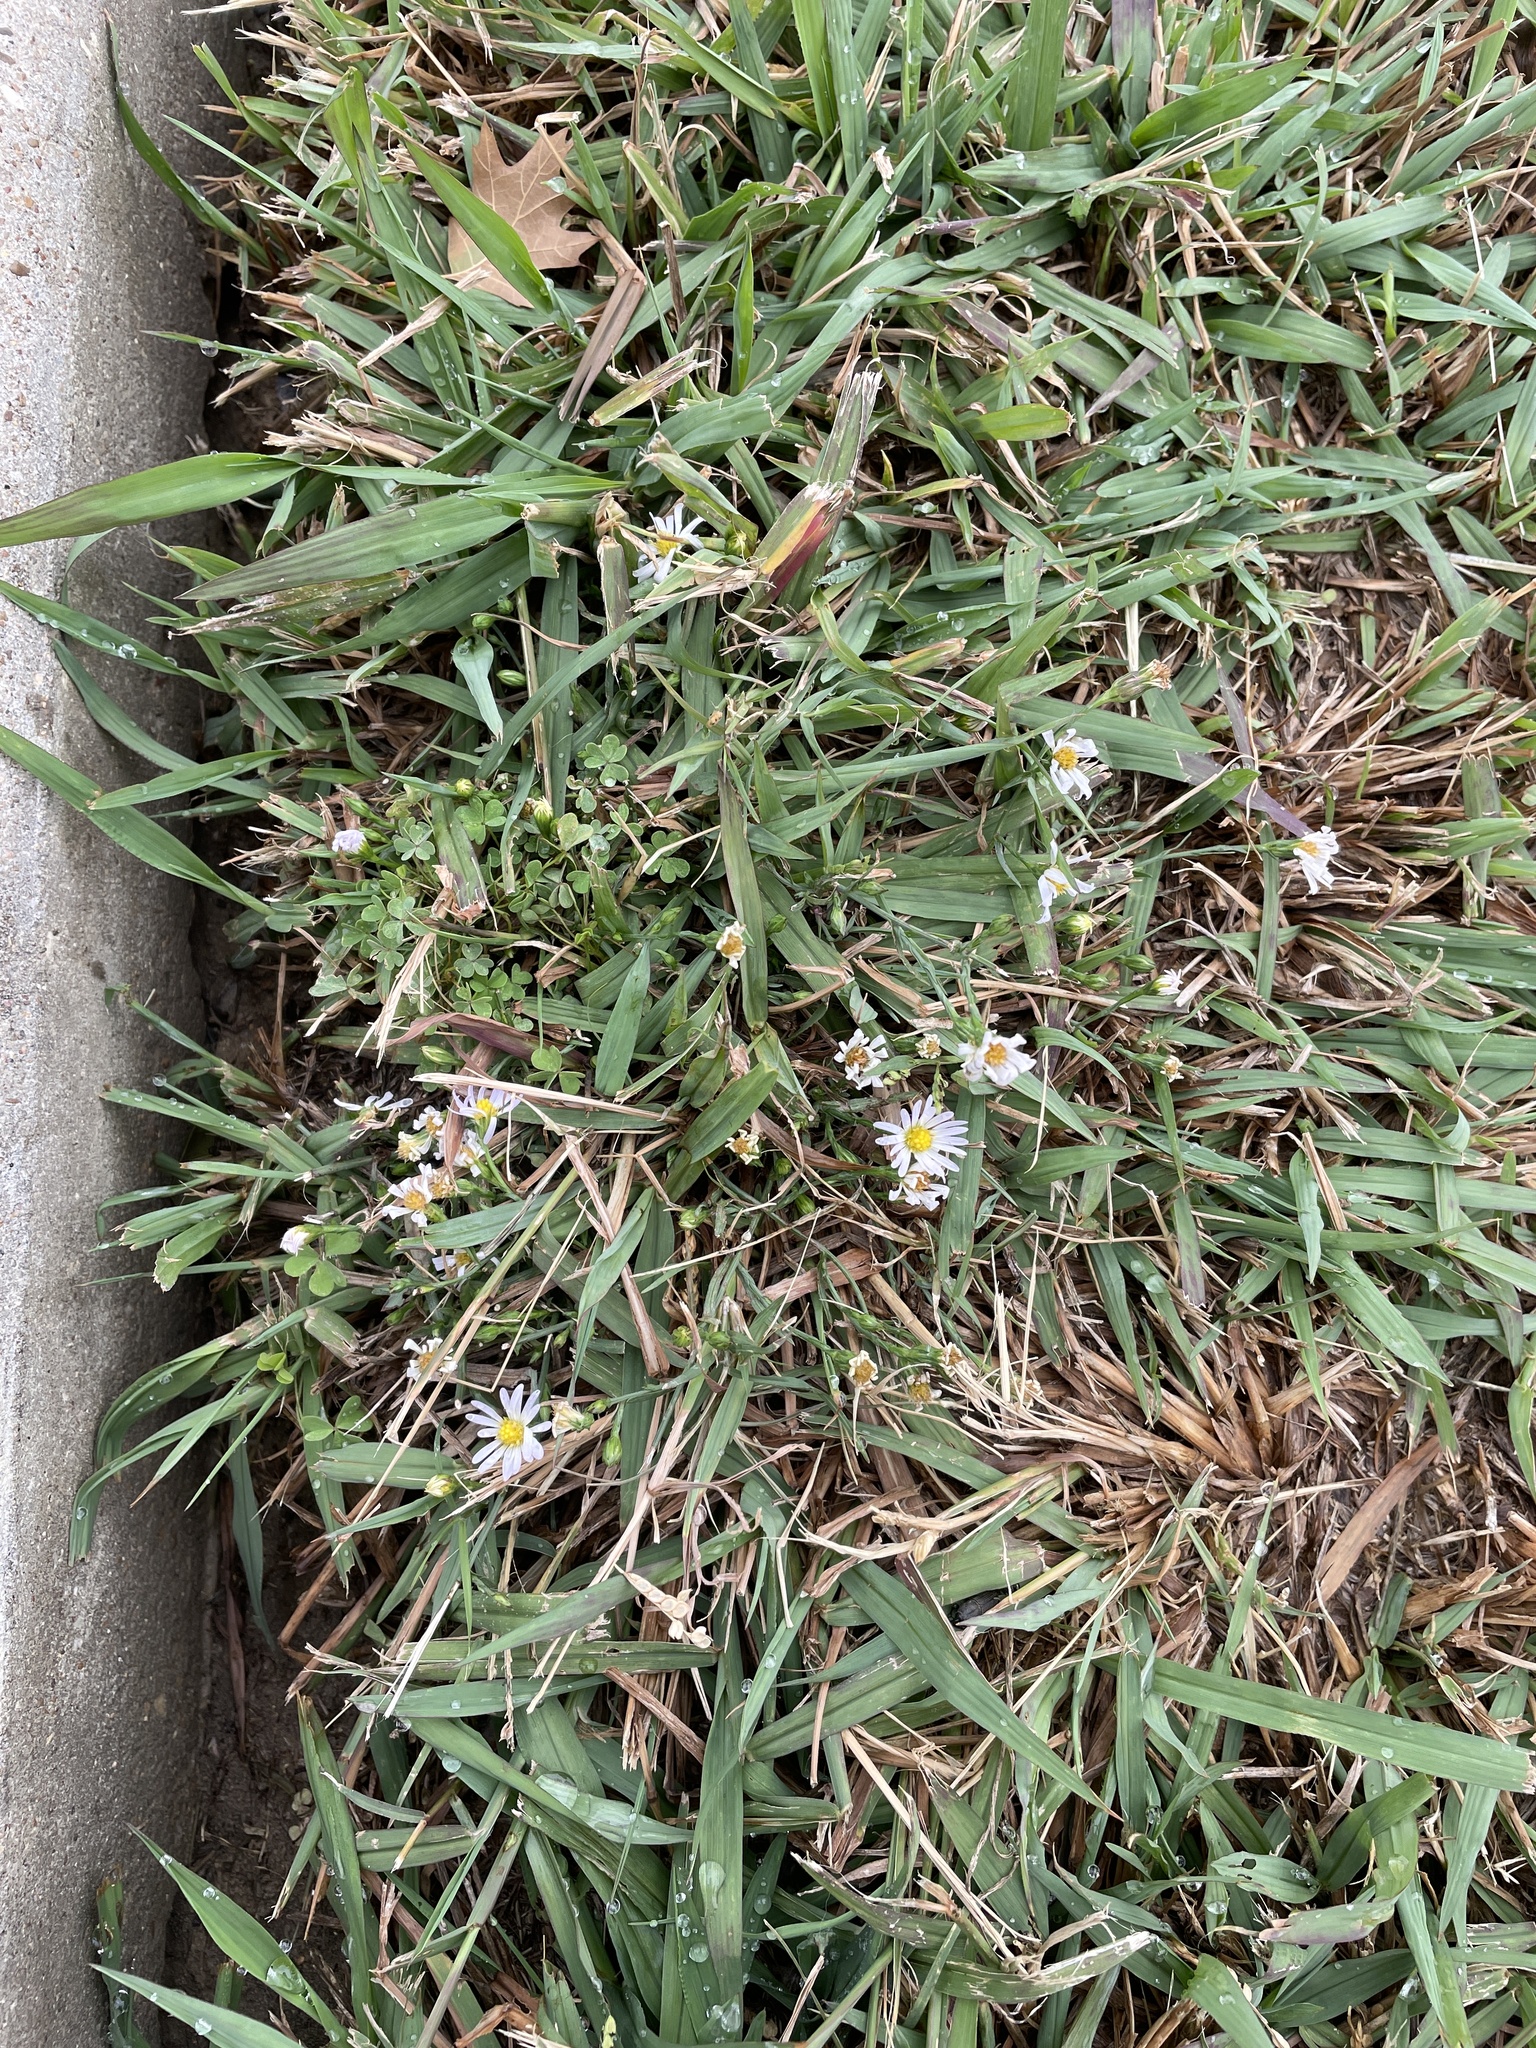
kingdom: Plantae
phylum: Tracheophyta
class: Magnoliopsida
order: Asterales
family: Asteraceae
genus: Symphyotrichum
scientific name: Symphyotrichum divaricatum
